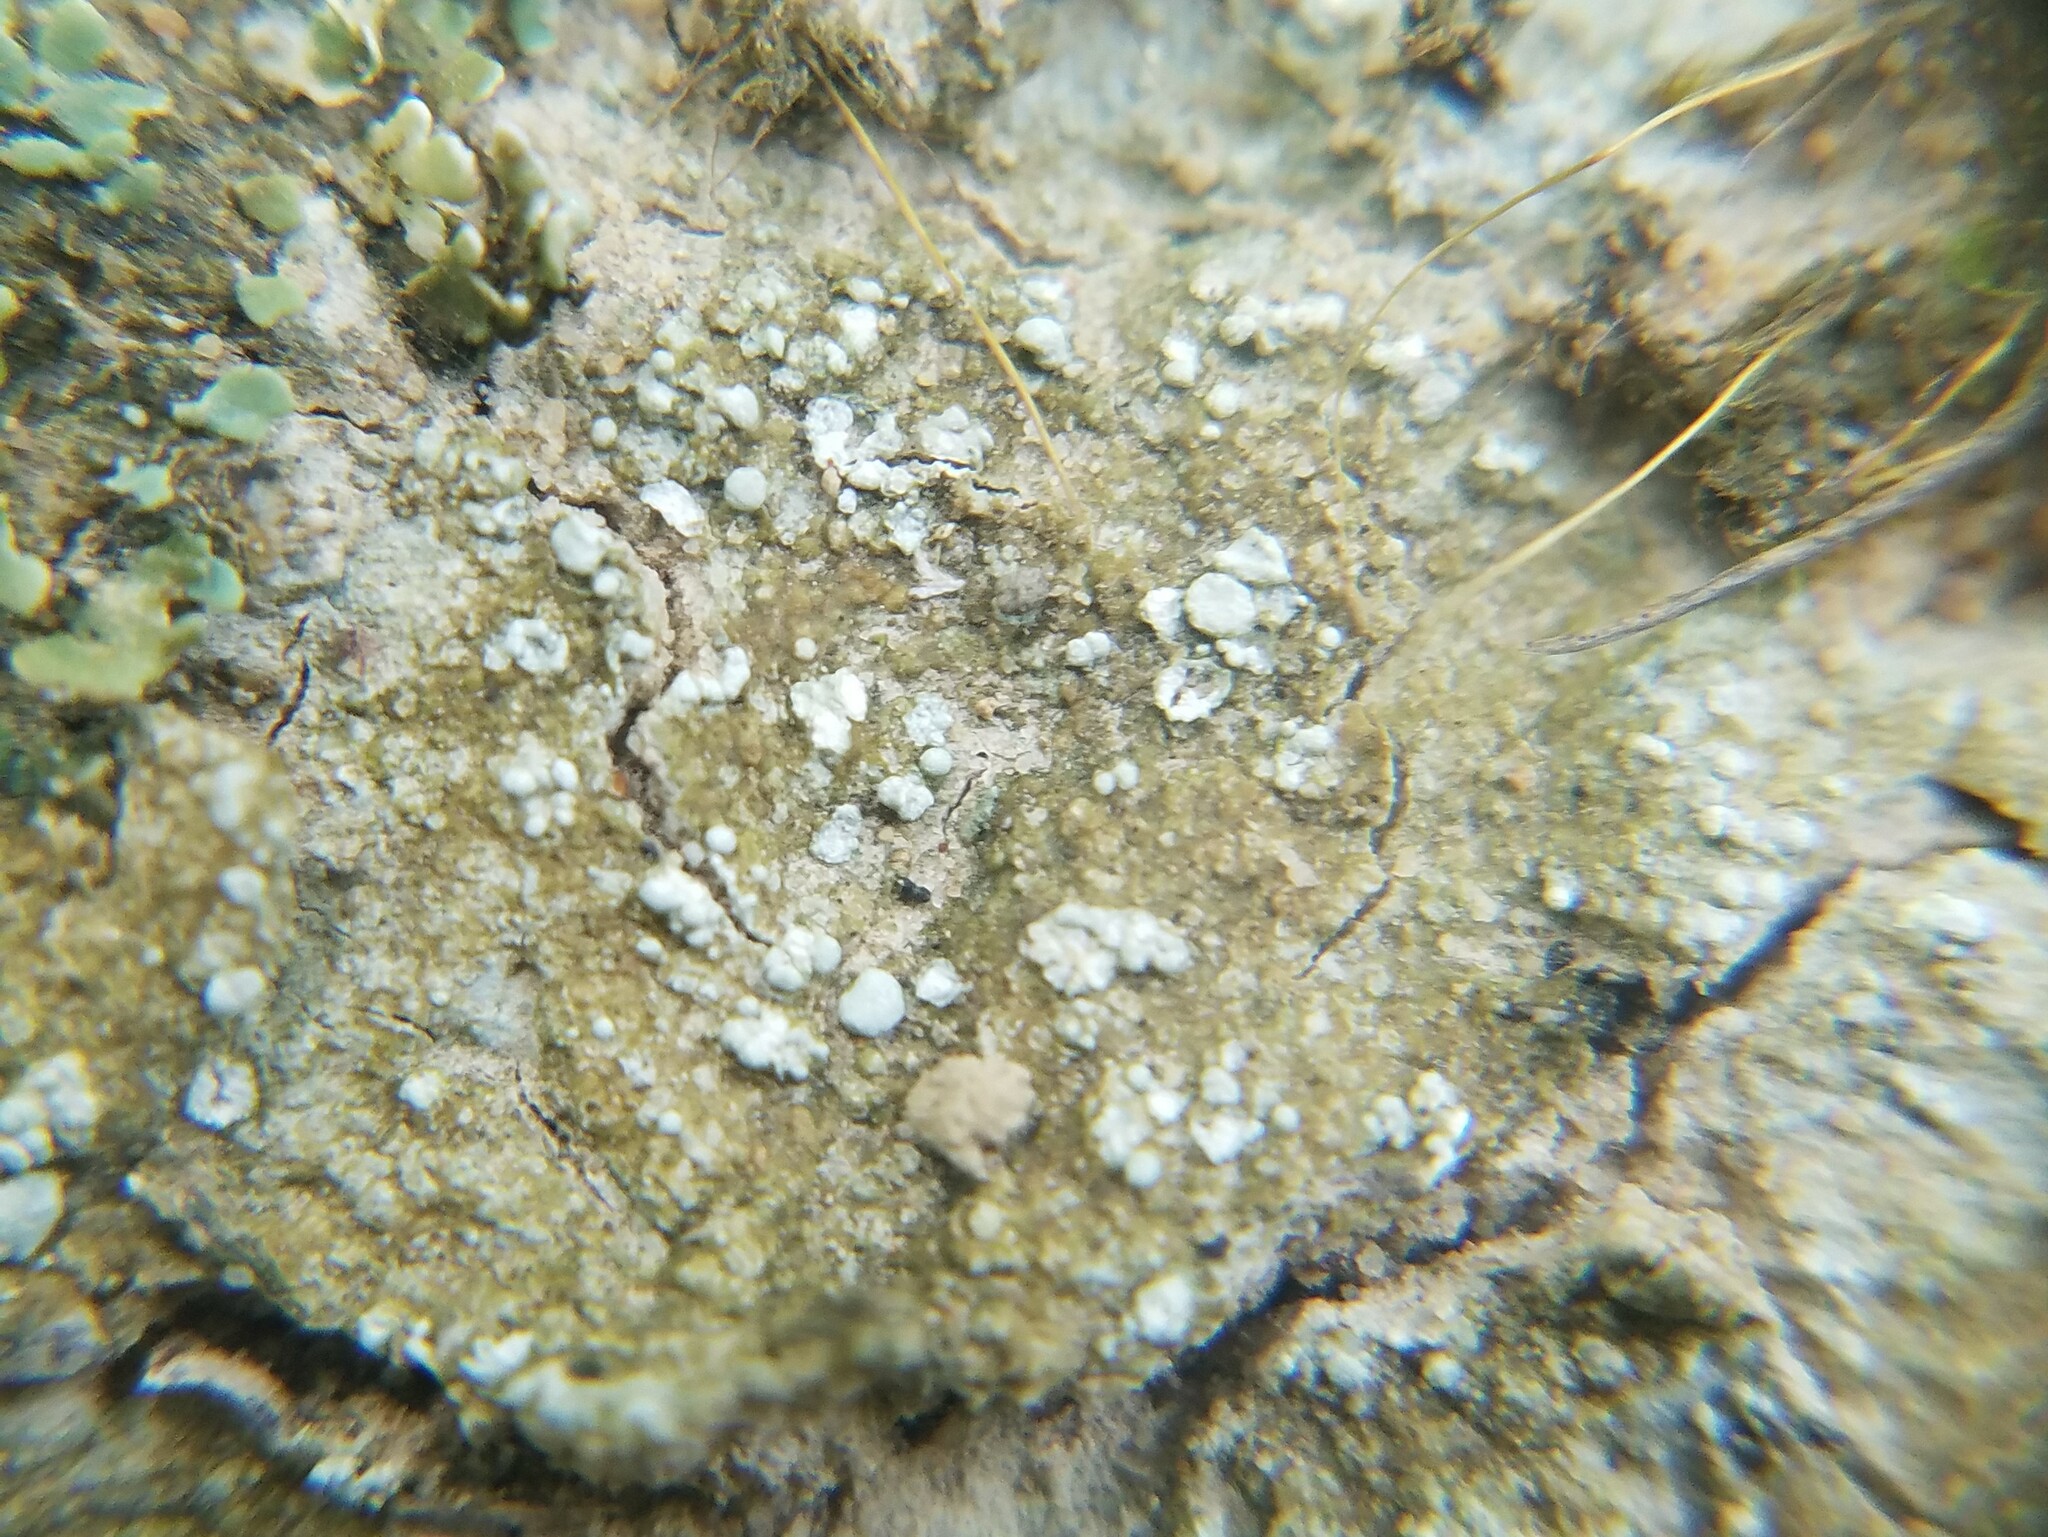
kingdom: Fungi
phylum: Ascomycota
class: Lecanoromycetes
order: Pertusariales
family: Icmadophilaceae
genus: Dibaeis
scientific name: Dibaeis baeomyces
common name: Pink earth lichen
